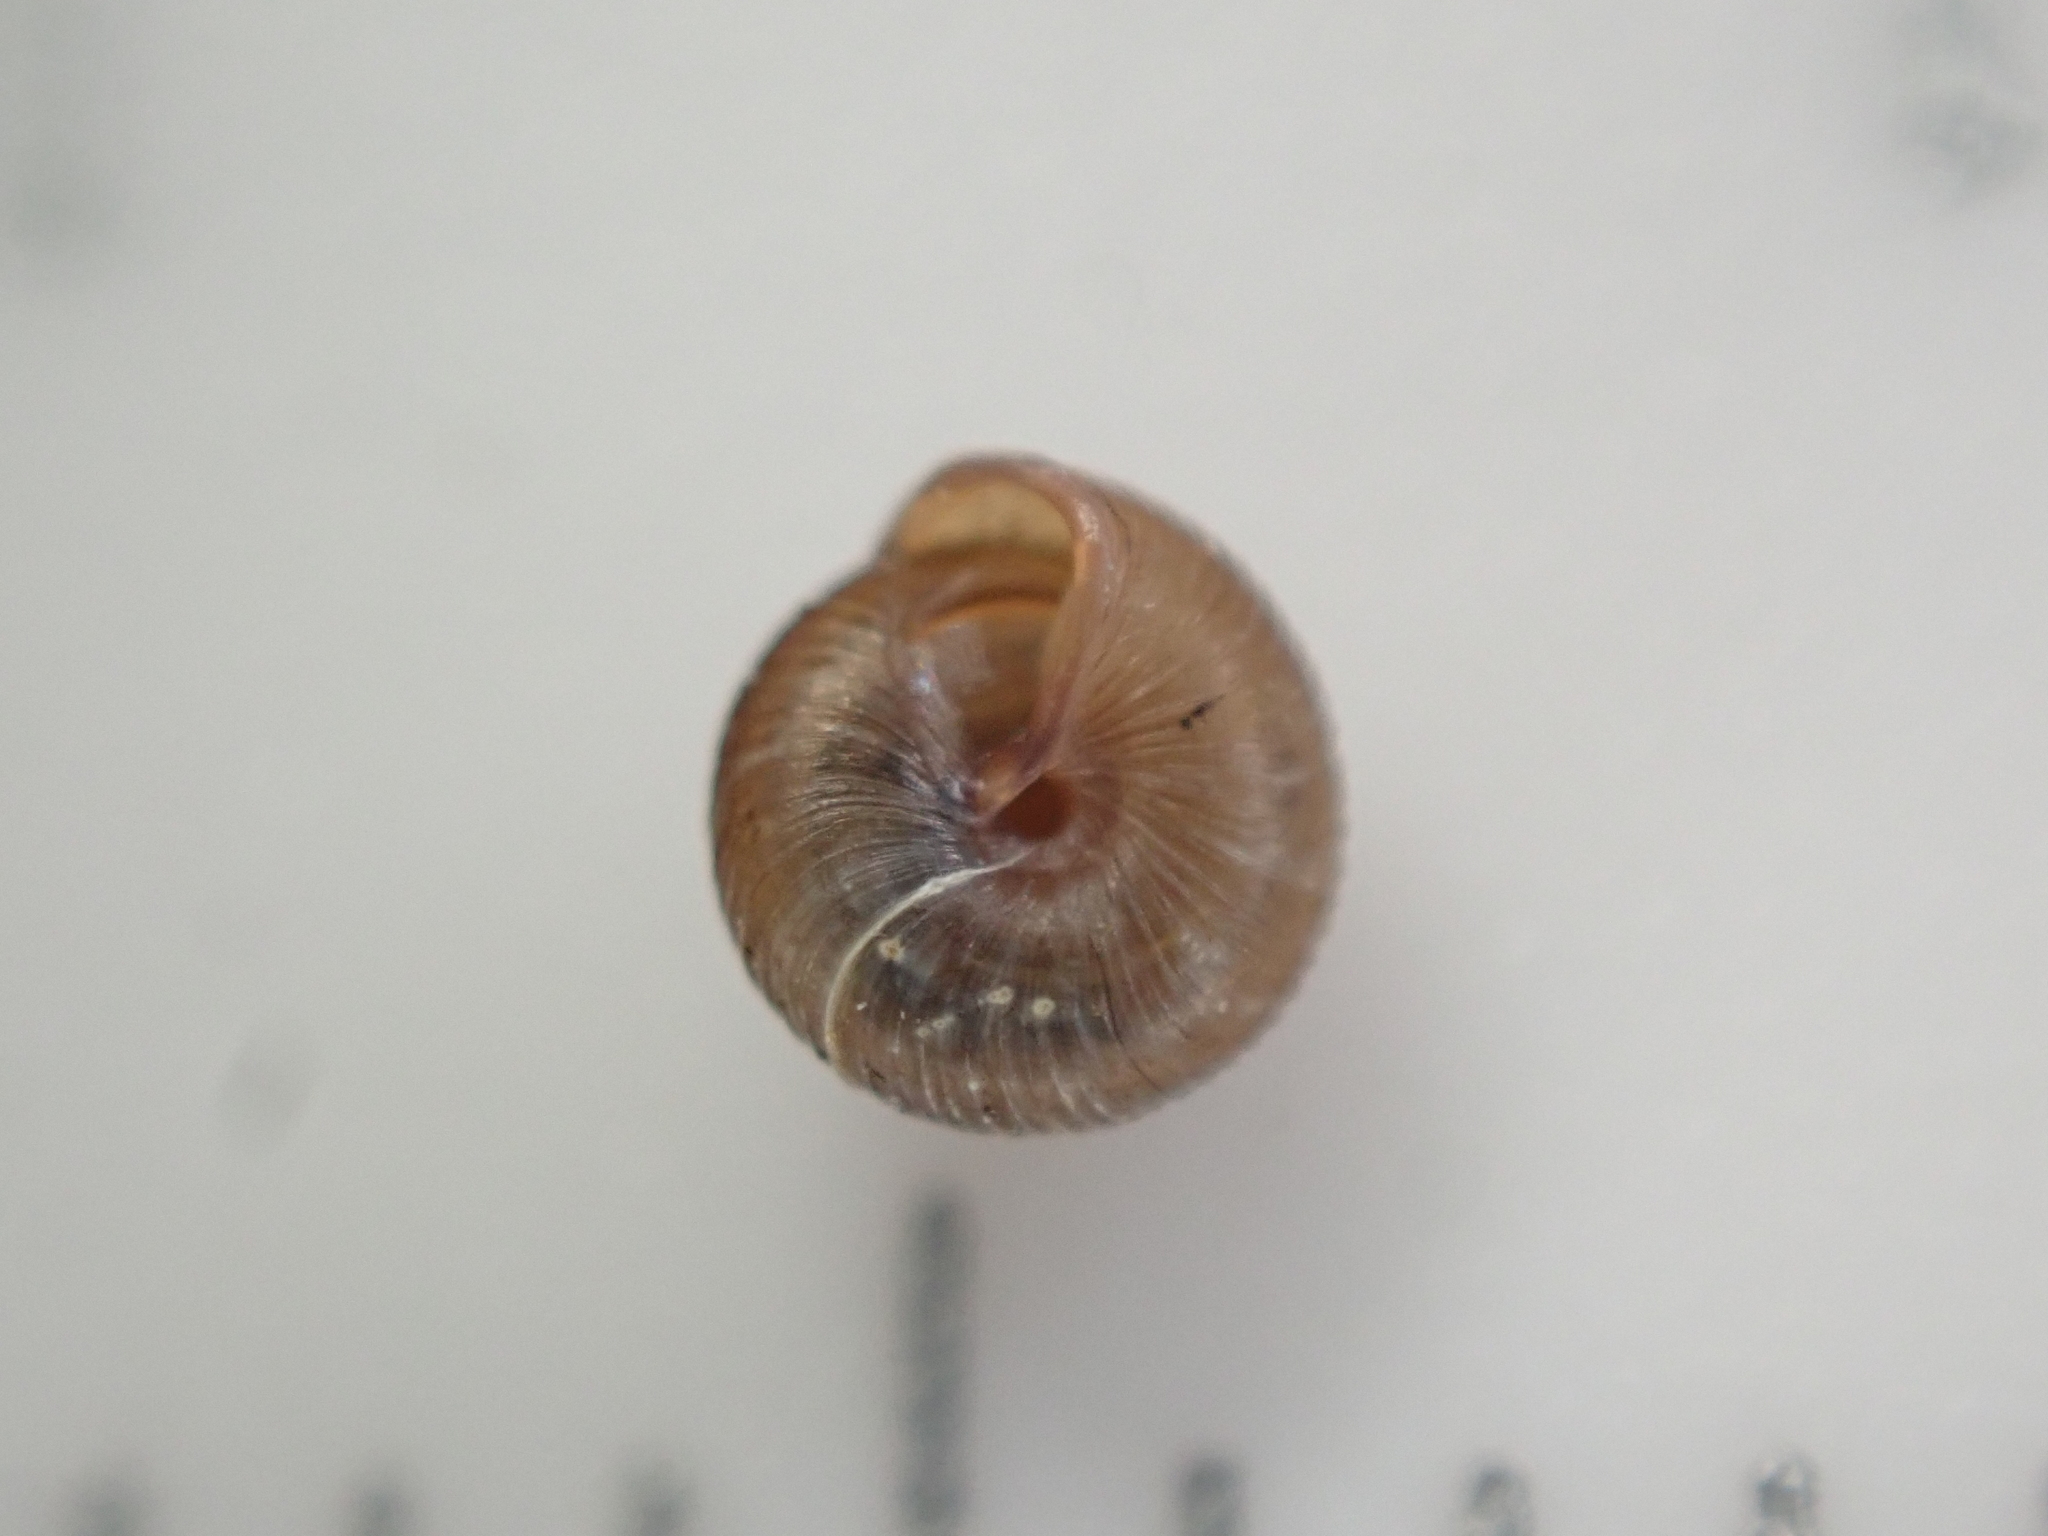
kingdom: Animalia
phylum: Mollusca
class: Gastropoda
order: Stylommatophora
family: Strobilopsidae
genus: Strobilops
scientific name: Strobilops labyrinthicus
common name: Maze pinecone
